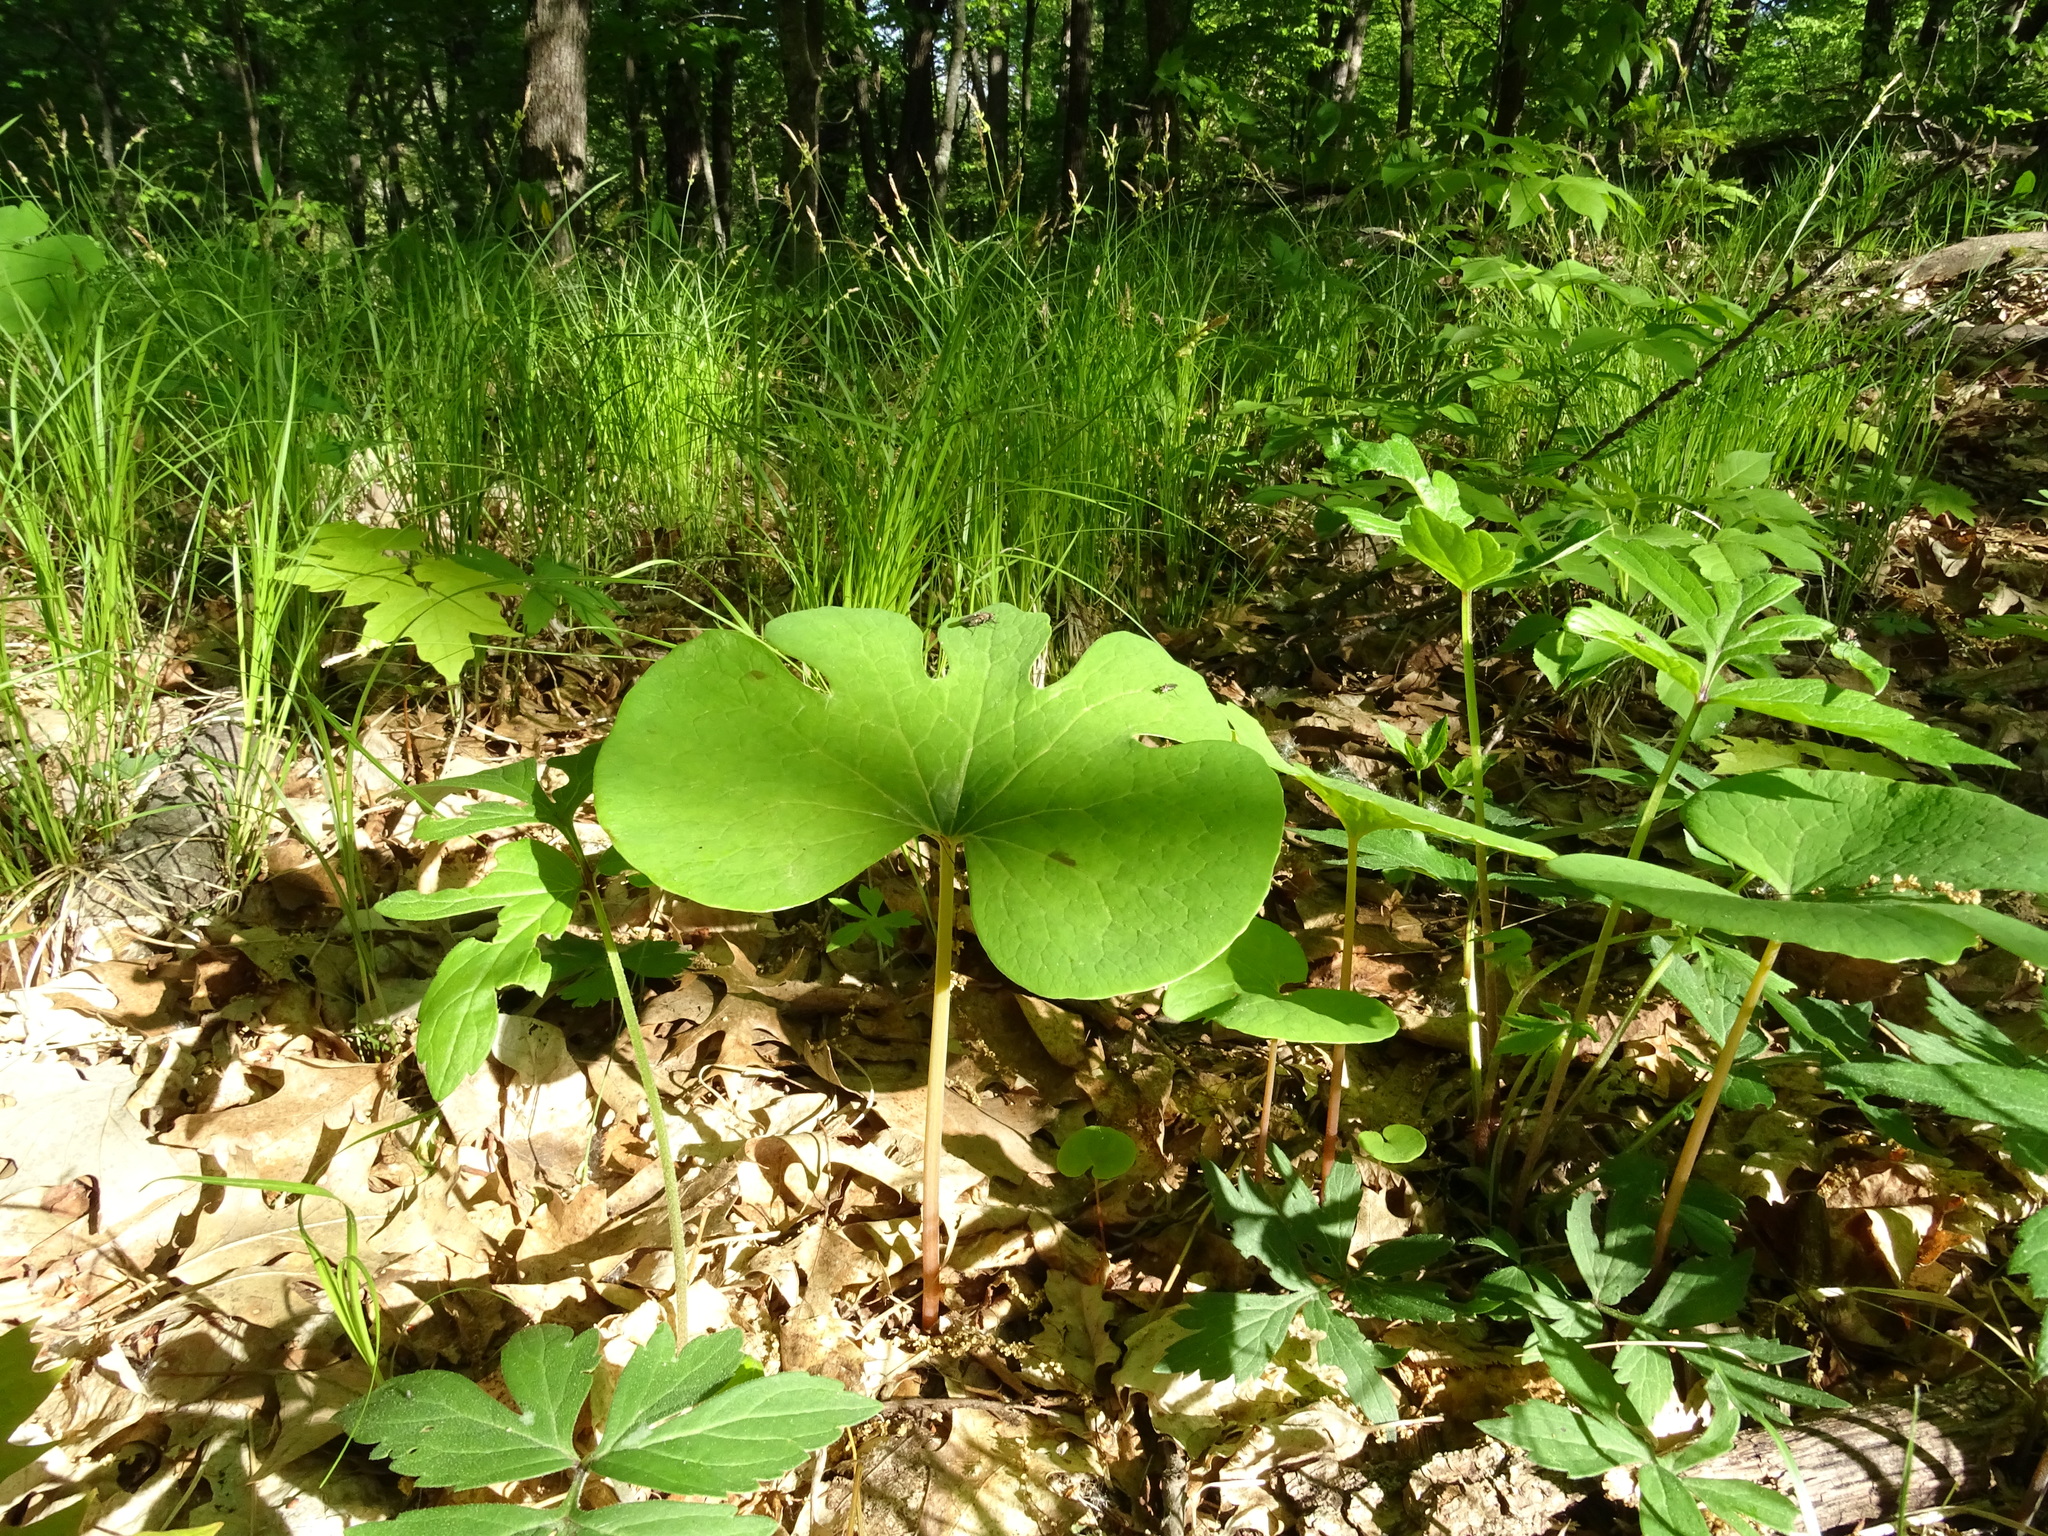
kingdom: Plantae
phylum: Tracheophyta
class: Magnoliopsida
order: Ranunculales
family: Papaveraceae
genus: Sanguinaria
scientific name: Sanguinaria canadensis
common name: Bloodroot
